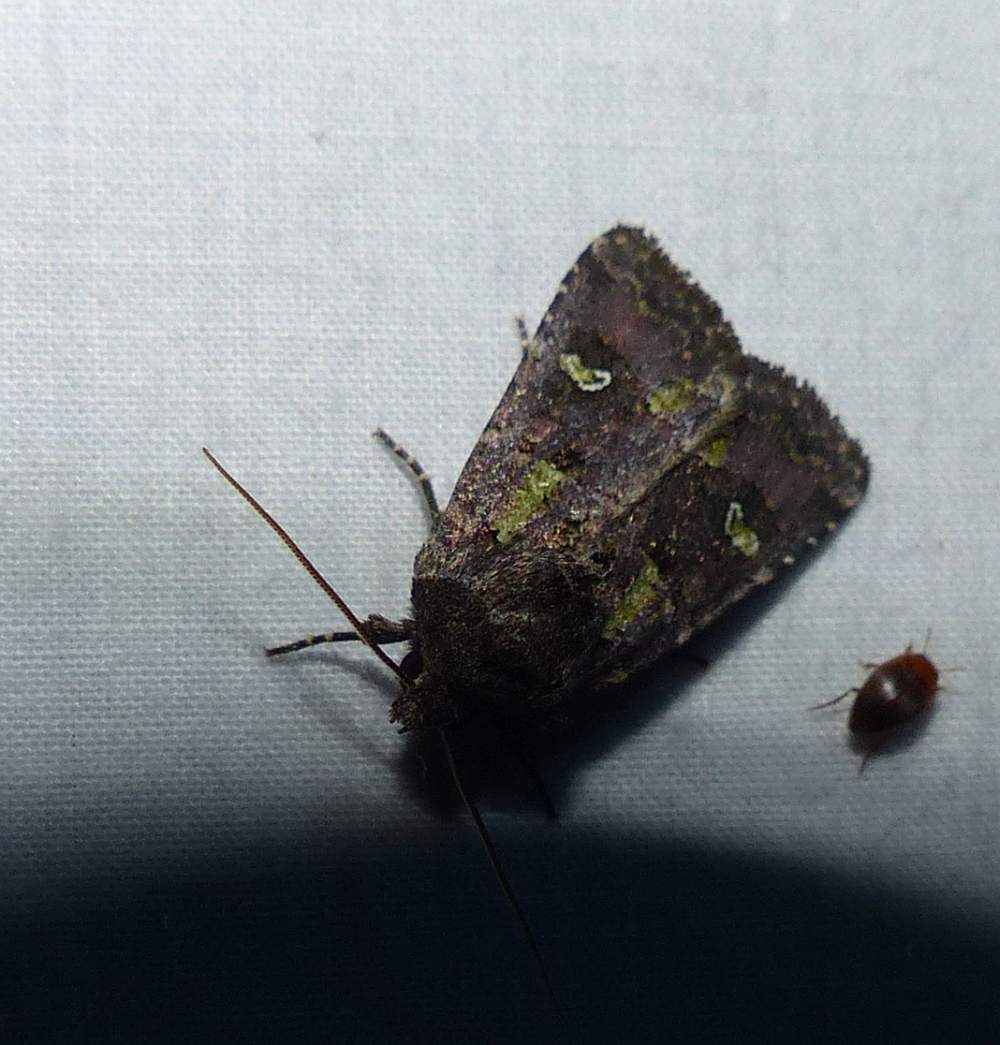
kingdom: Animalia
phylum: Arthropoda
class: Insecta
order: Lepidoptera
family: Noctuidae
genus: Lacinipolia
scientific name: Lacinipolia renigera
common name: Kidney-spotted minor
